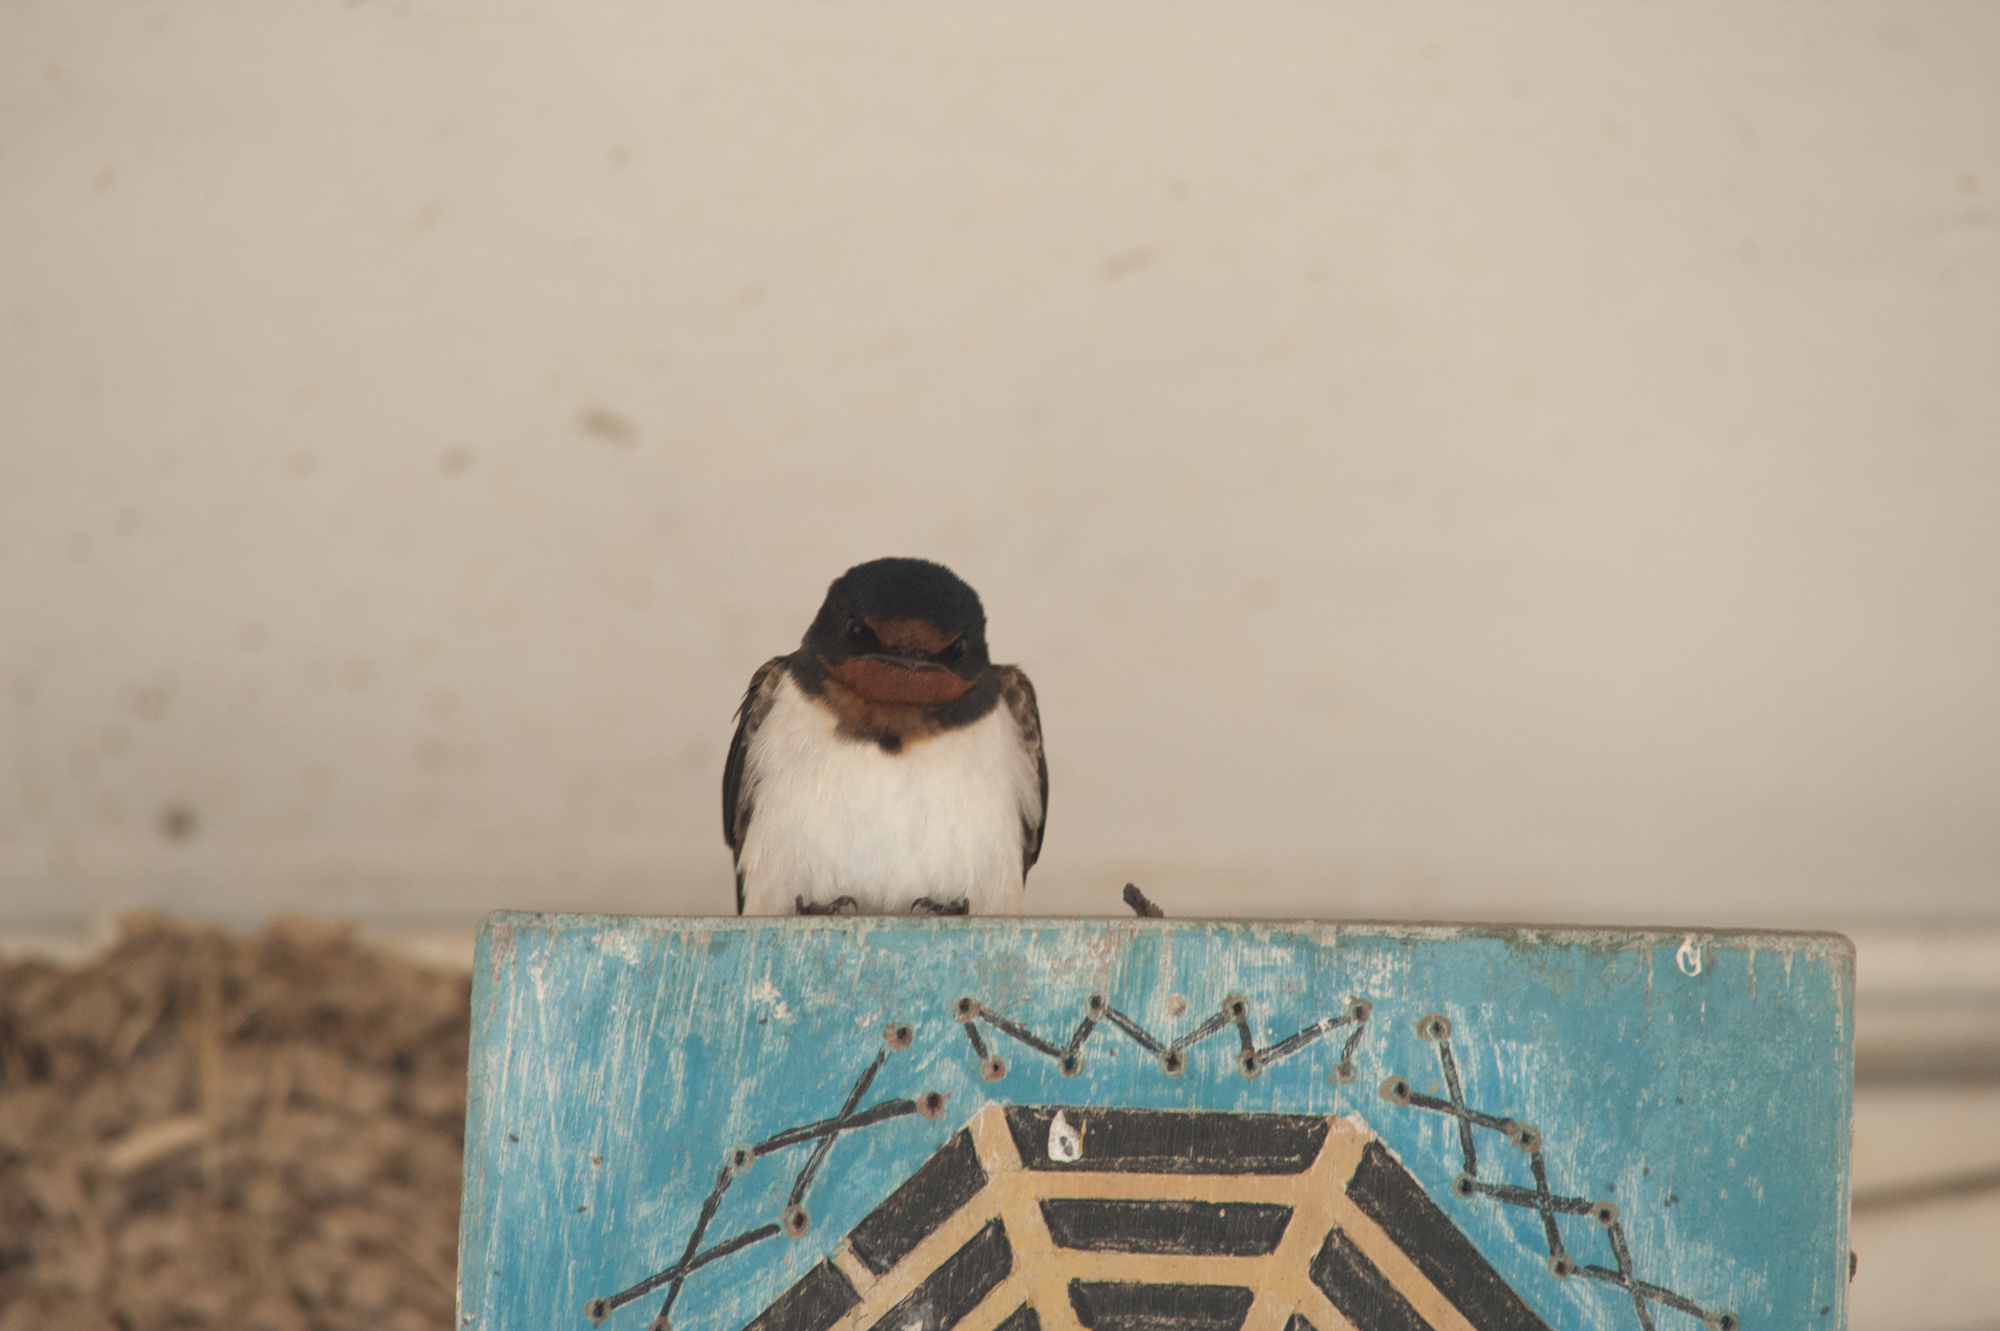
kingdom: Animalia
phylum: Chordata
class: Aves
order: Passeriformes
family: Hirundinidae
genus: Hirundo
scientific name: Hirundo rustica
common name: Barn swallow
